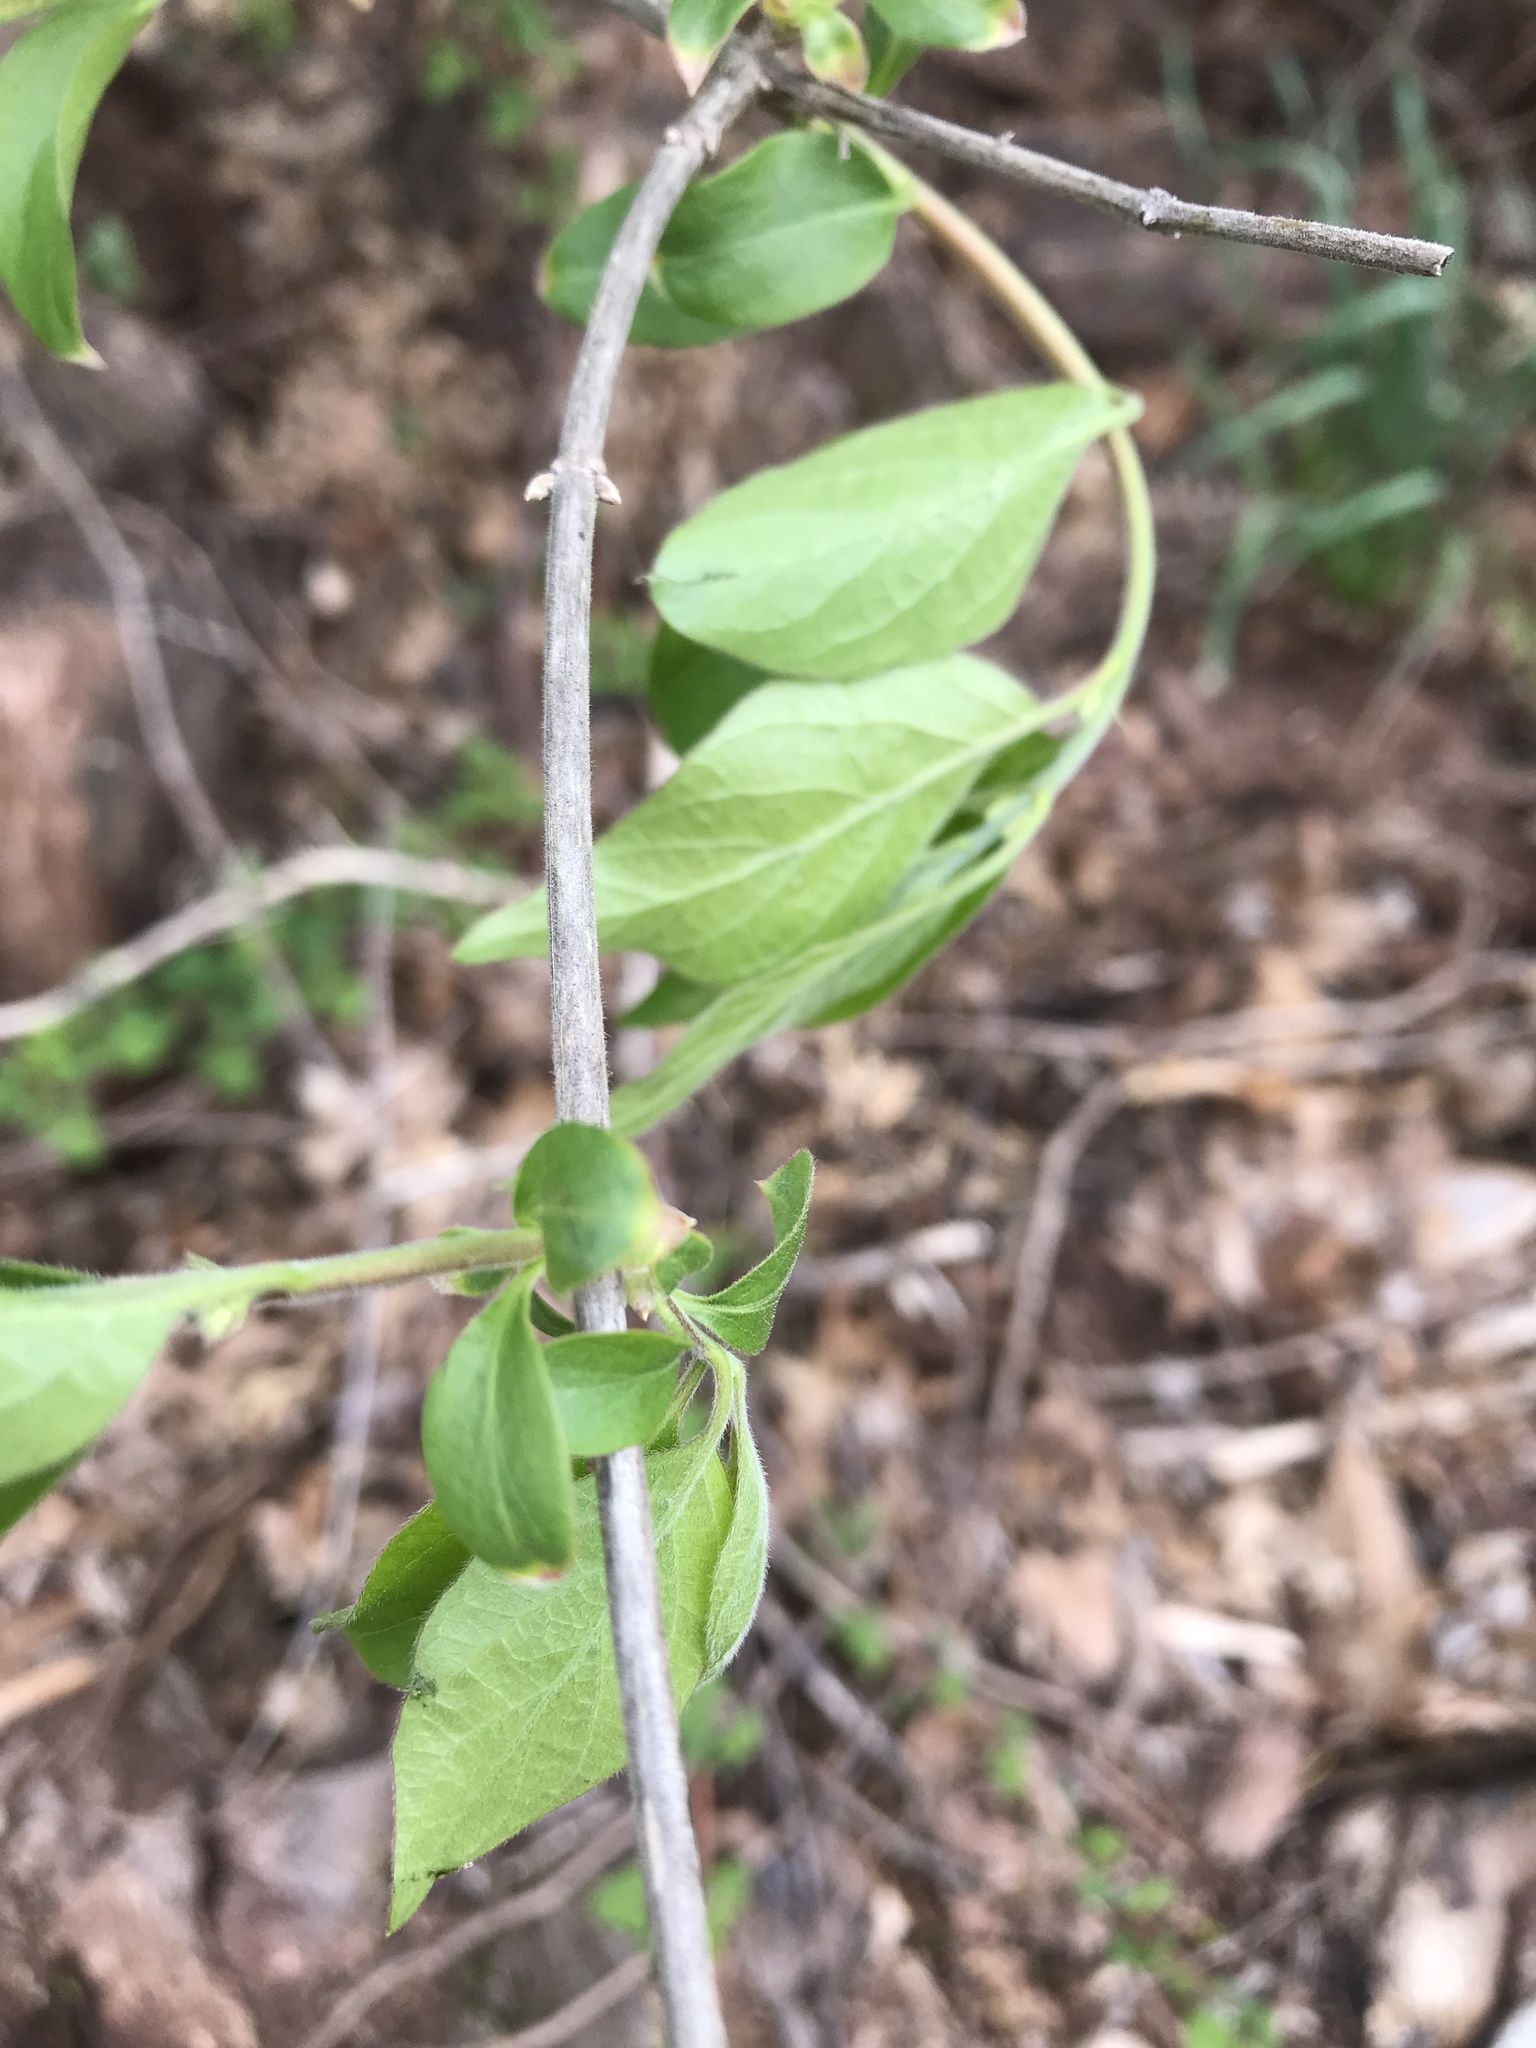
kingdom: Plantae
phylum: Tracheophyta
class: Magnoliopsida
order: Dipsacales
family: Caprifoliaceae
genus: Lonicera
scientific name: Lonicera maackii
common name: Amur honeysuckle
